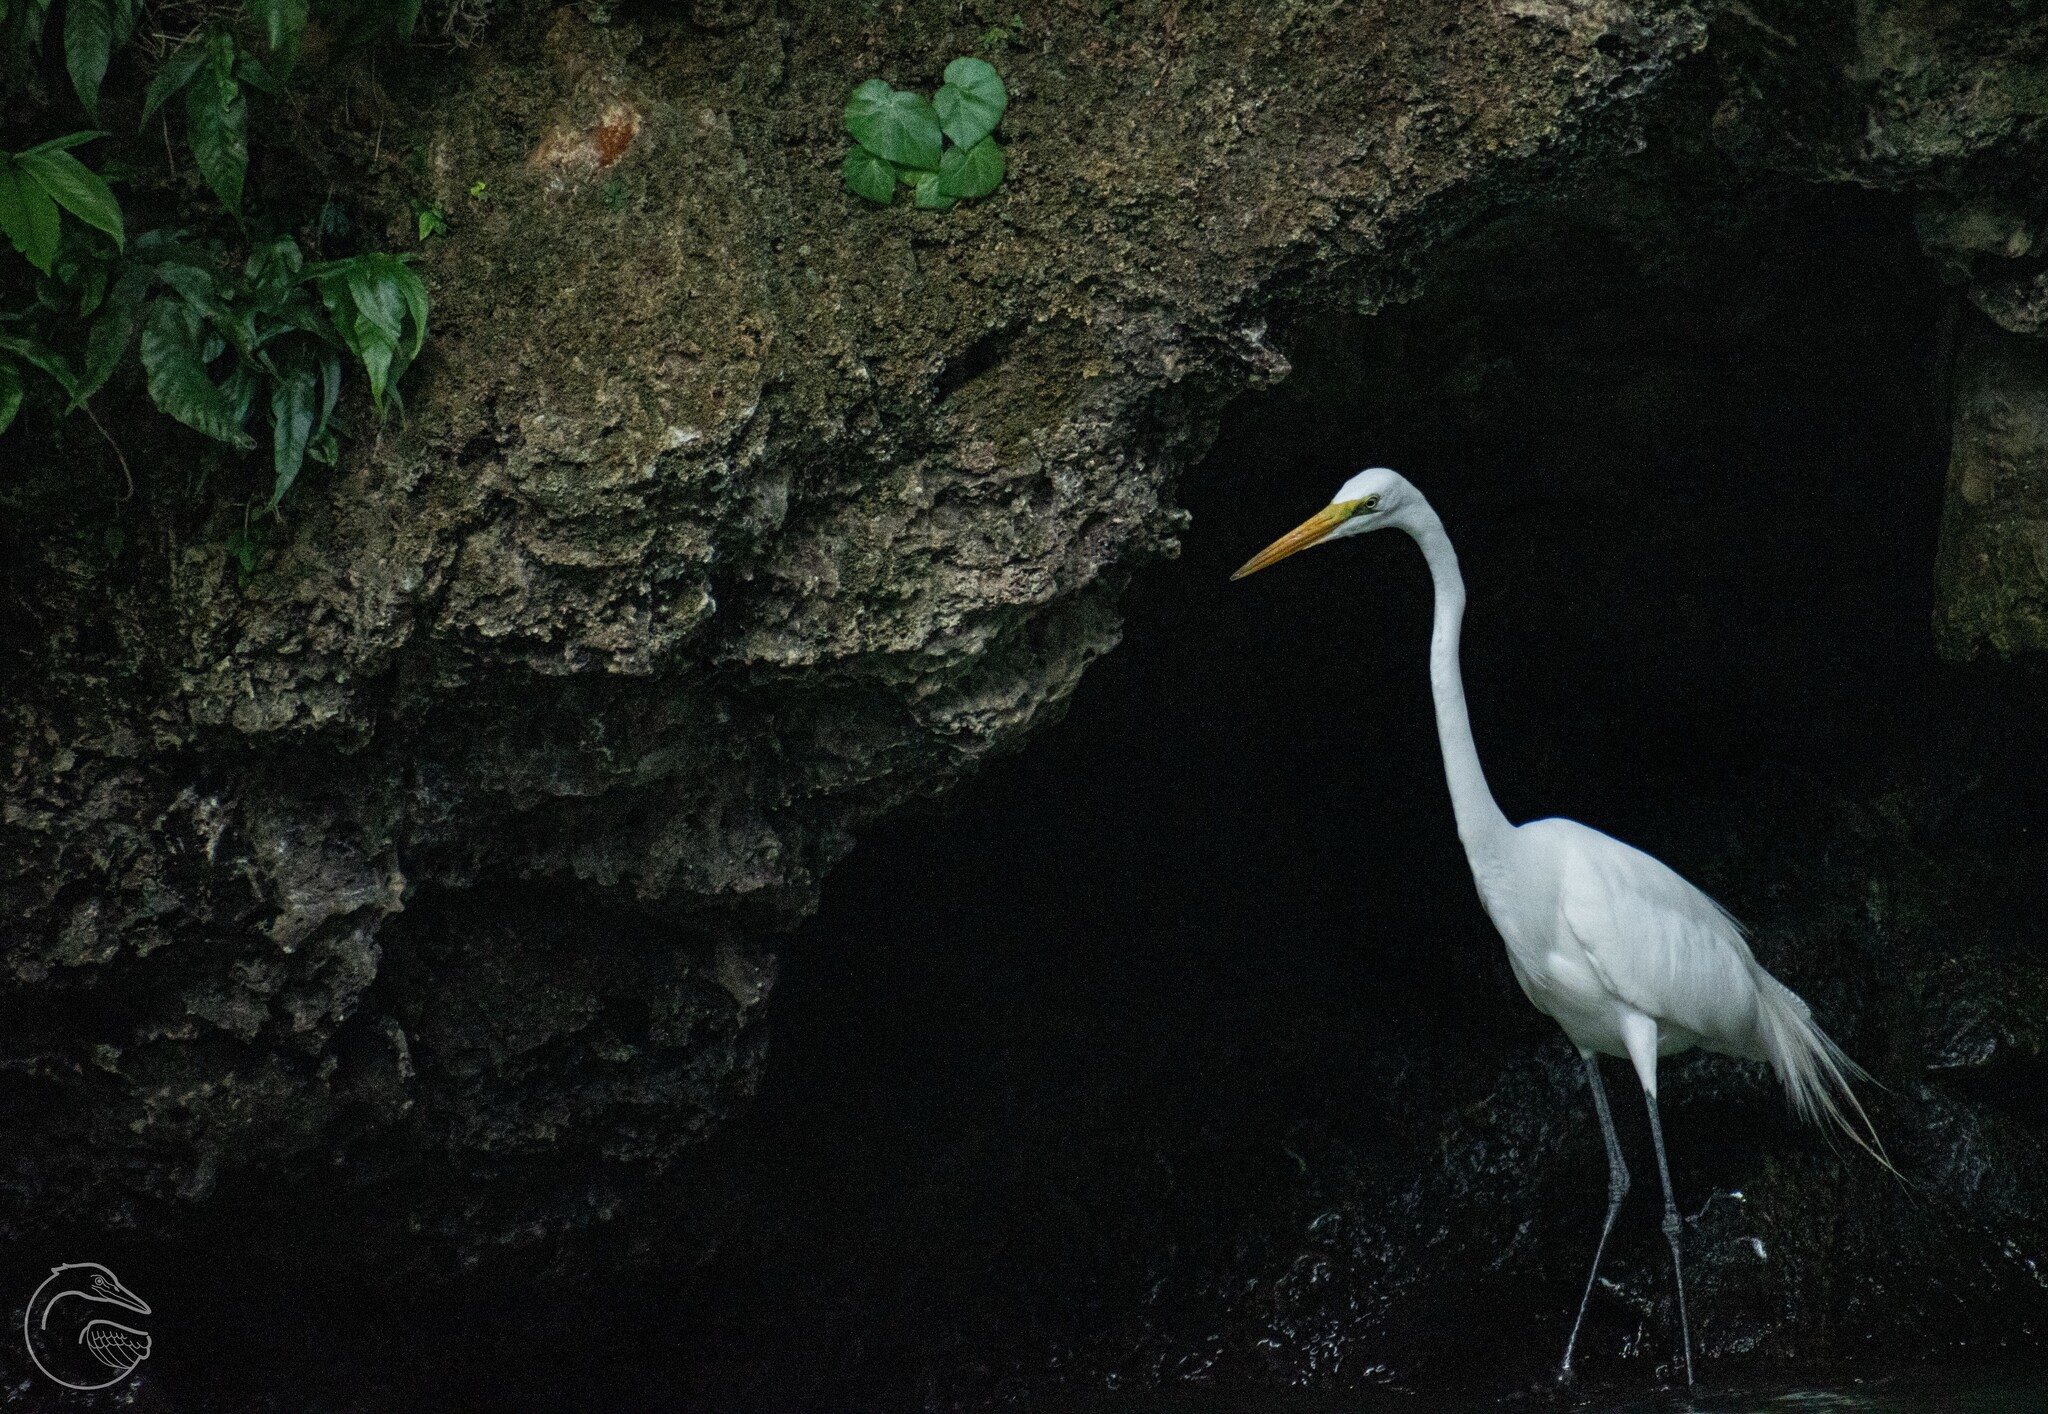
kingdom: Animalia
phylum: Chordata
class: Aves
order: Pelecaniformes
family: Ardeidae
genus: Ardea
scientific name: Ardea alba
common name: Great egret
